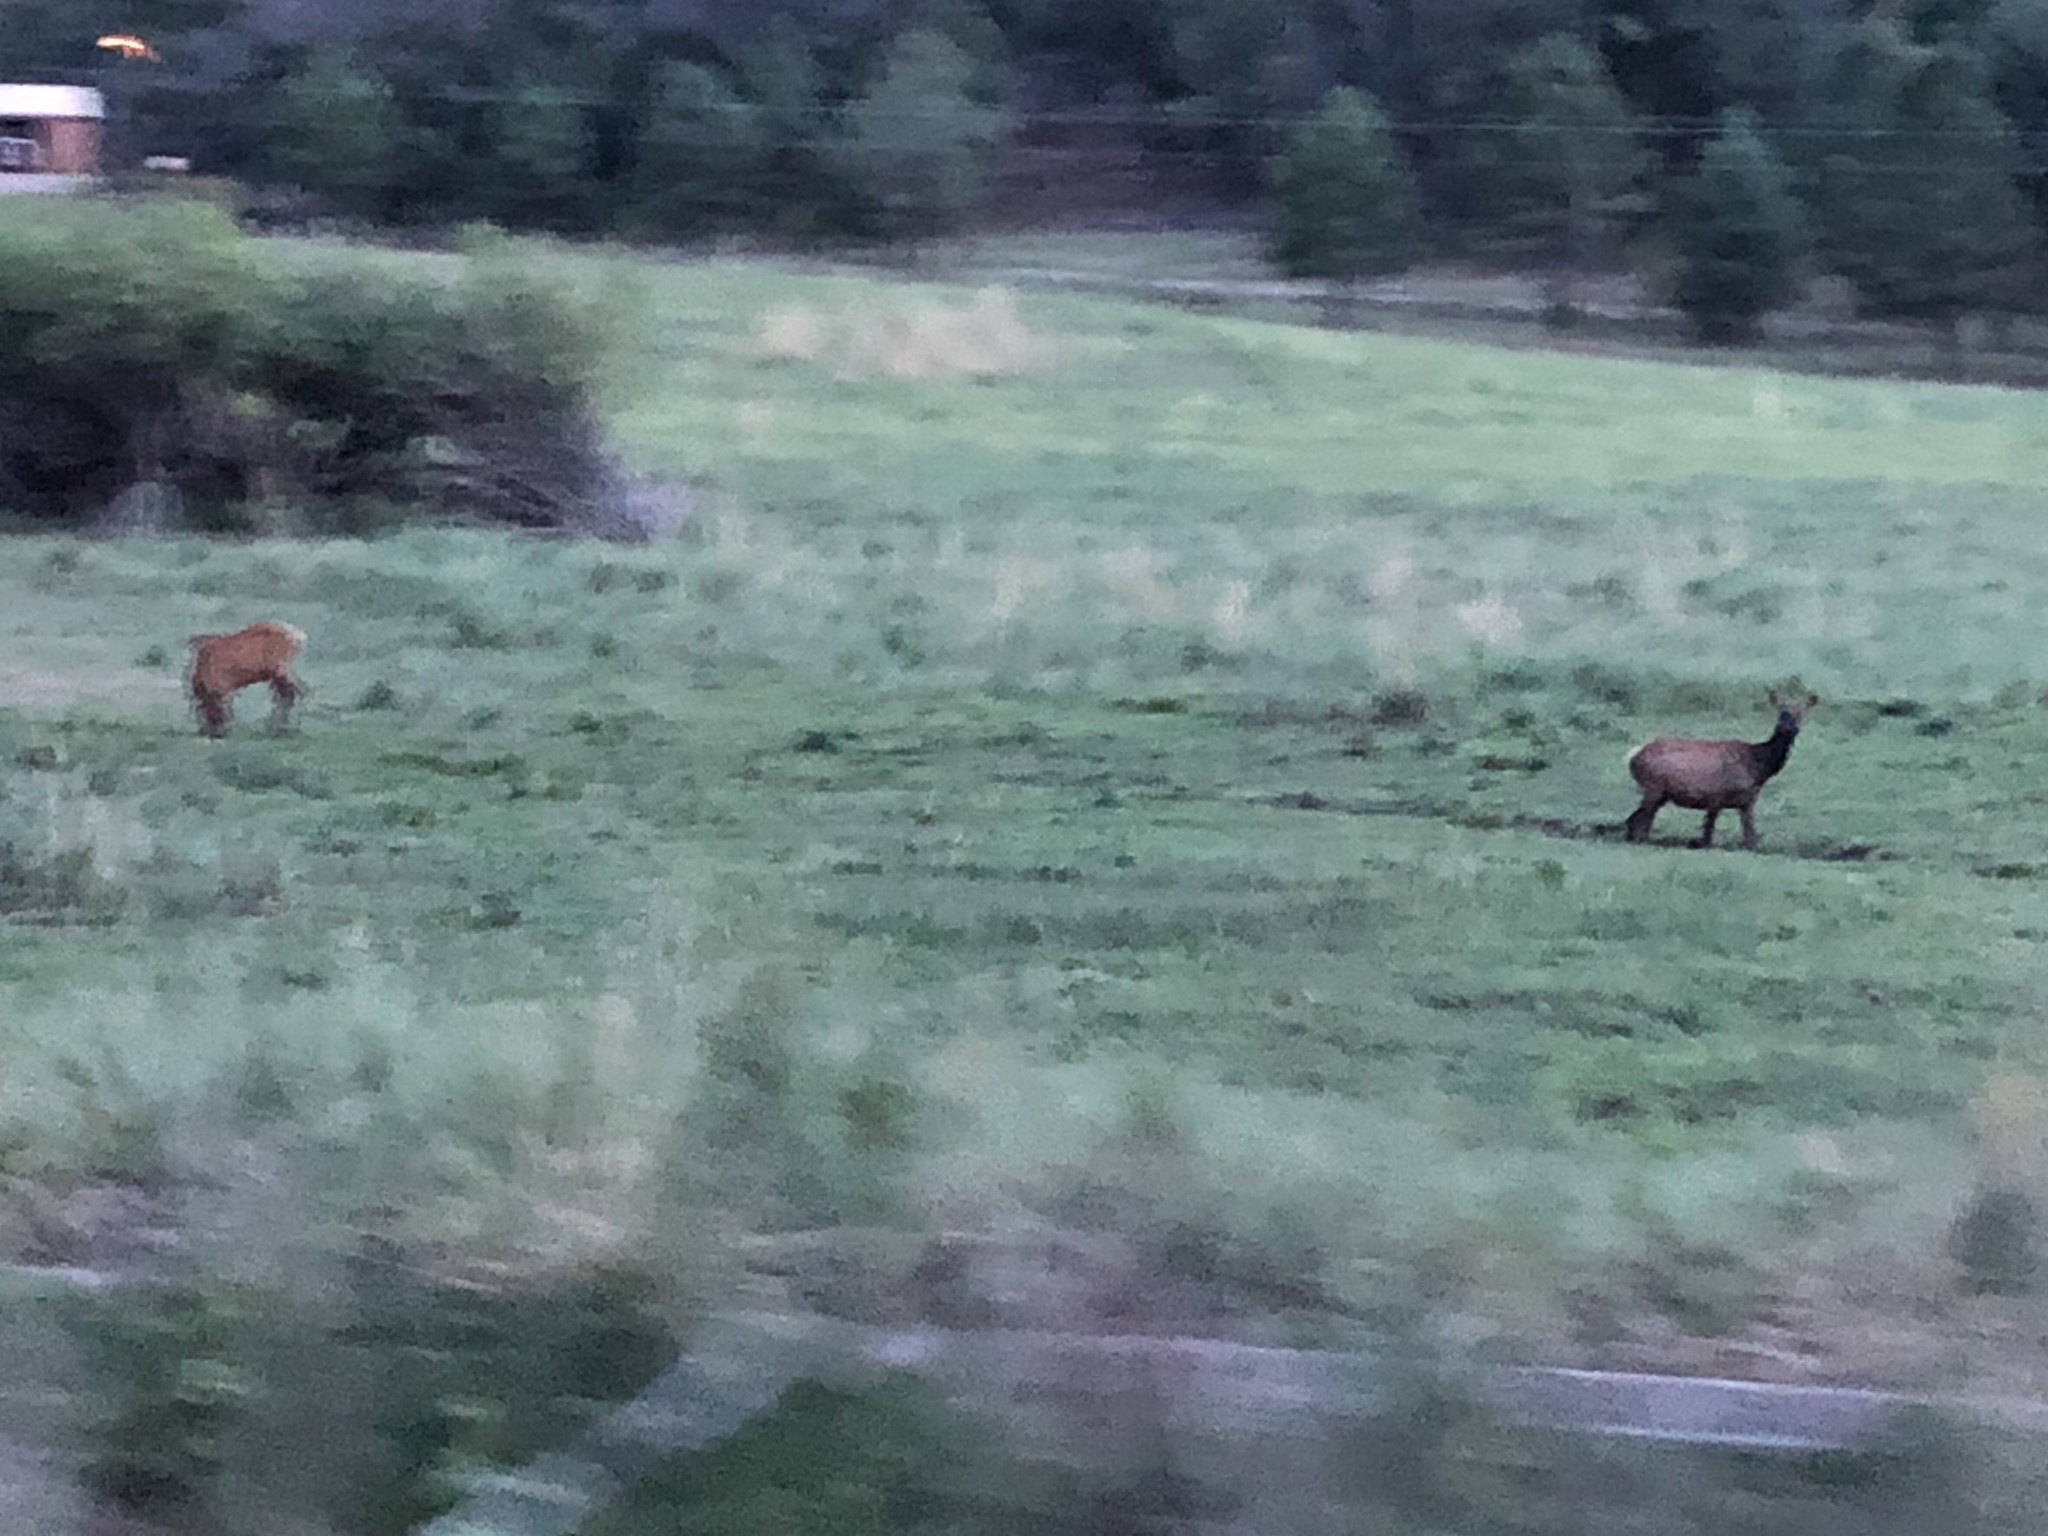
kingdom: Animalia
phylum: Chordata
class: Mammalia
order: Artiodactyla
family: Cervidae
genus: Cervus
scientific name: Cervus elaphus
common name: Red deer
